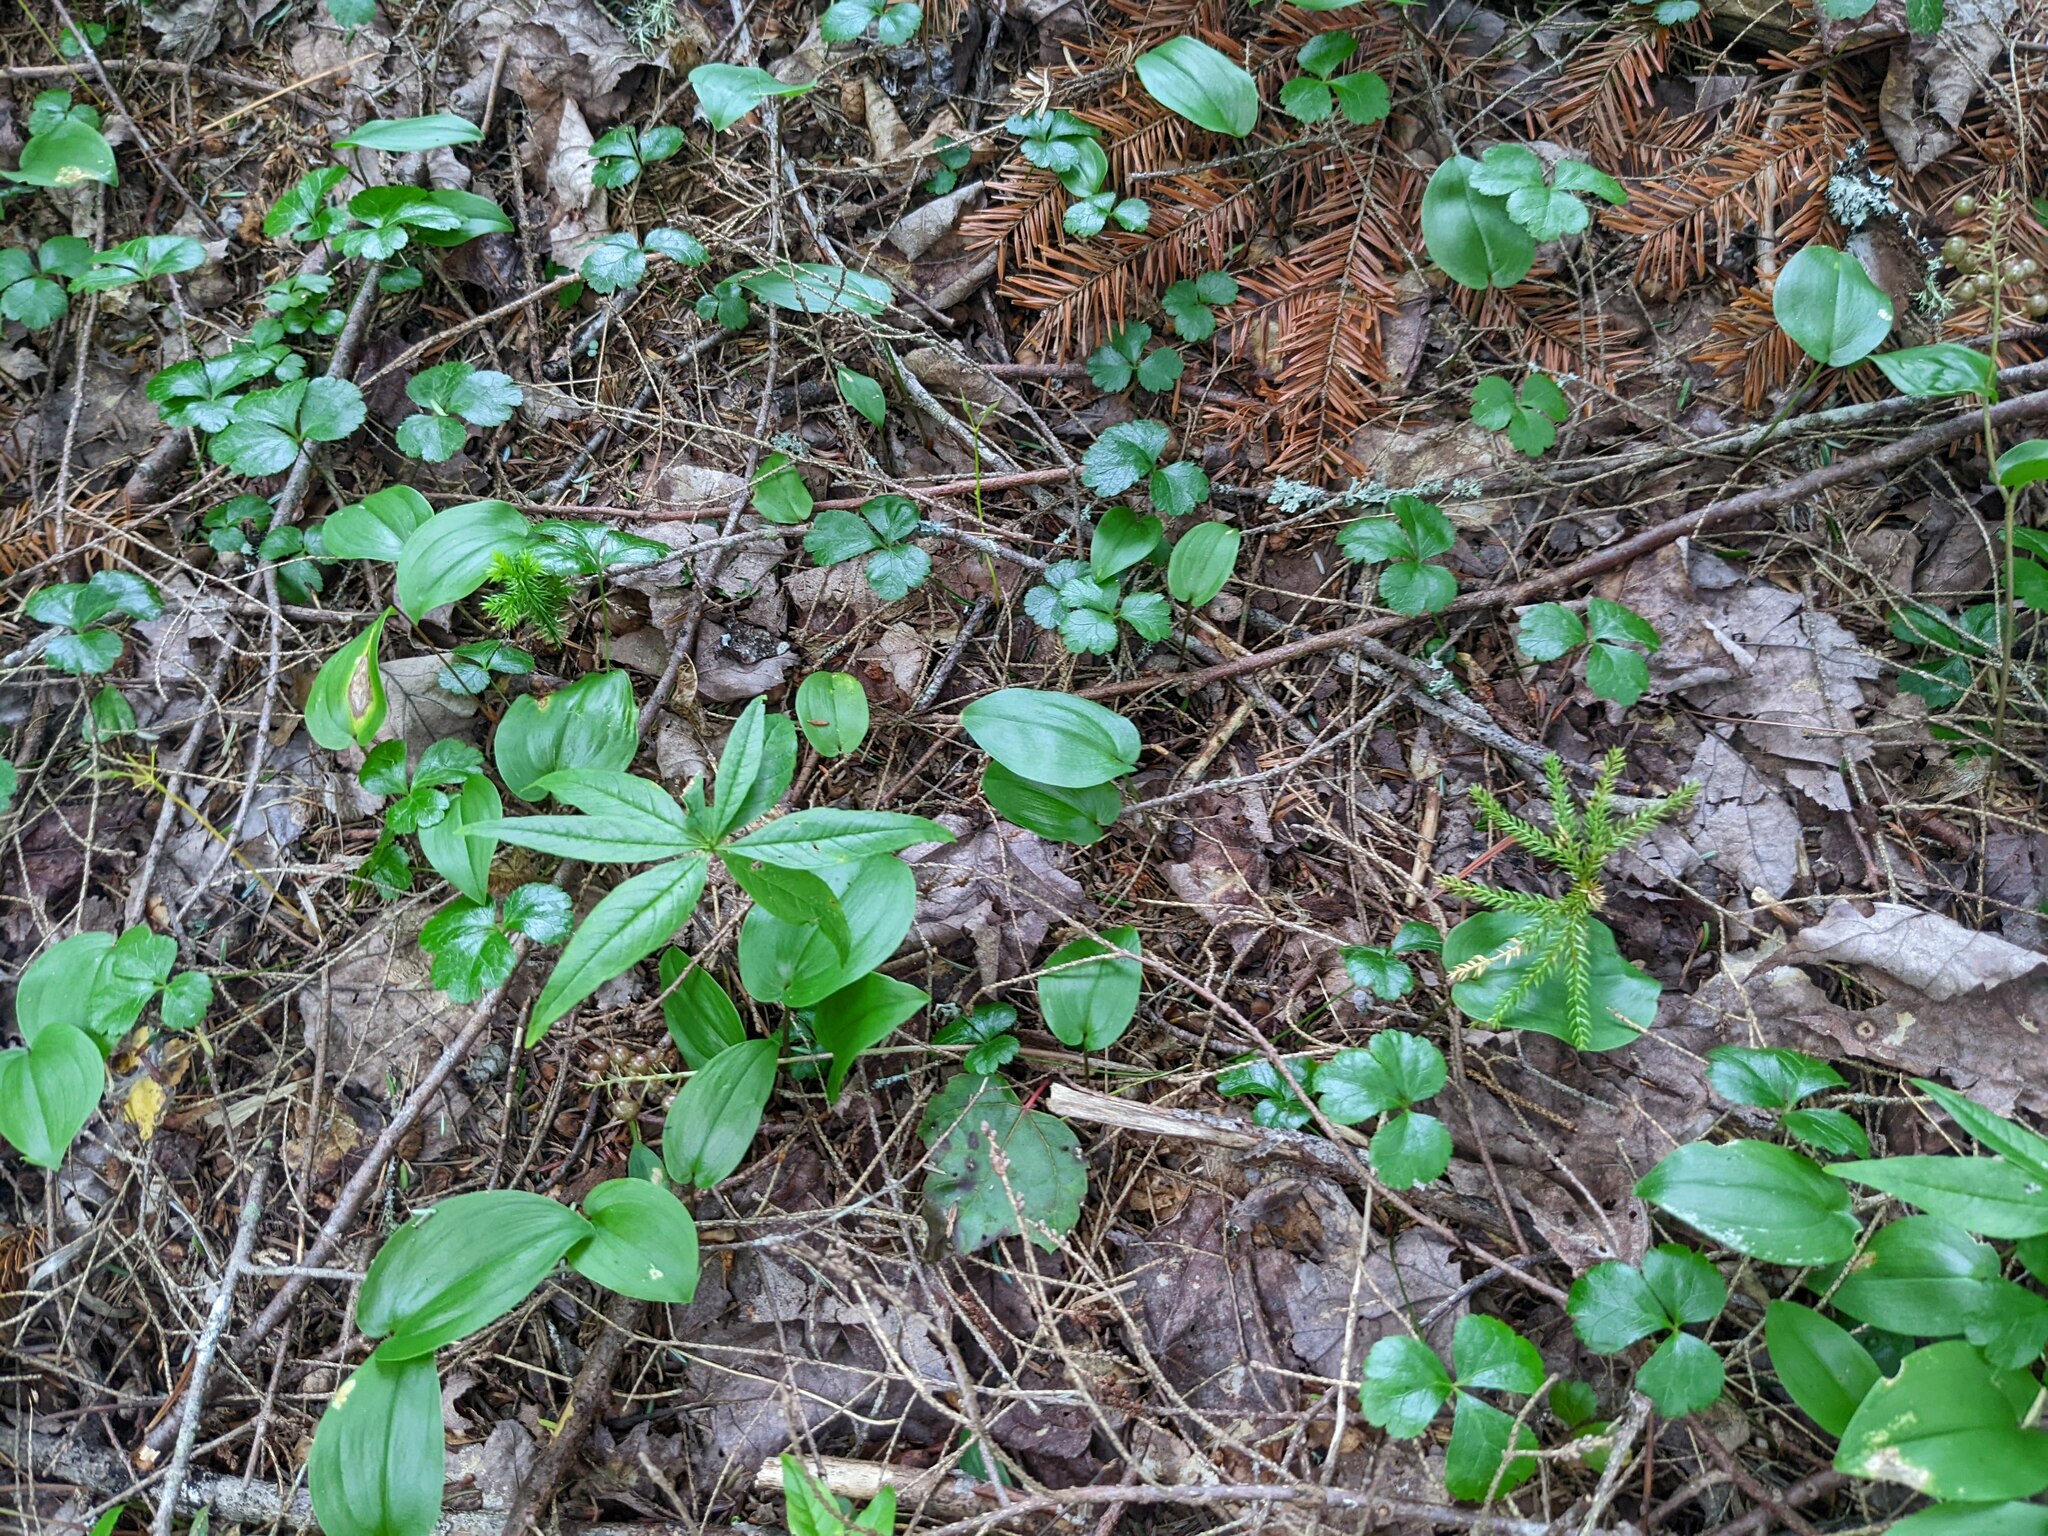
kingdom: Plantae
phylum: Tracheophyta
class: Magnoliopsida
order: Ranunculales
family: Ranunculaceae
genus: Coptis
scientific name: Coptis trifolia
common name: Canker-root
